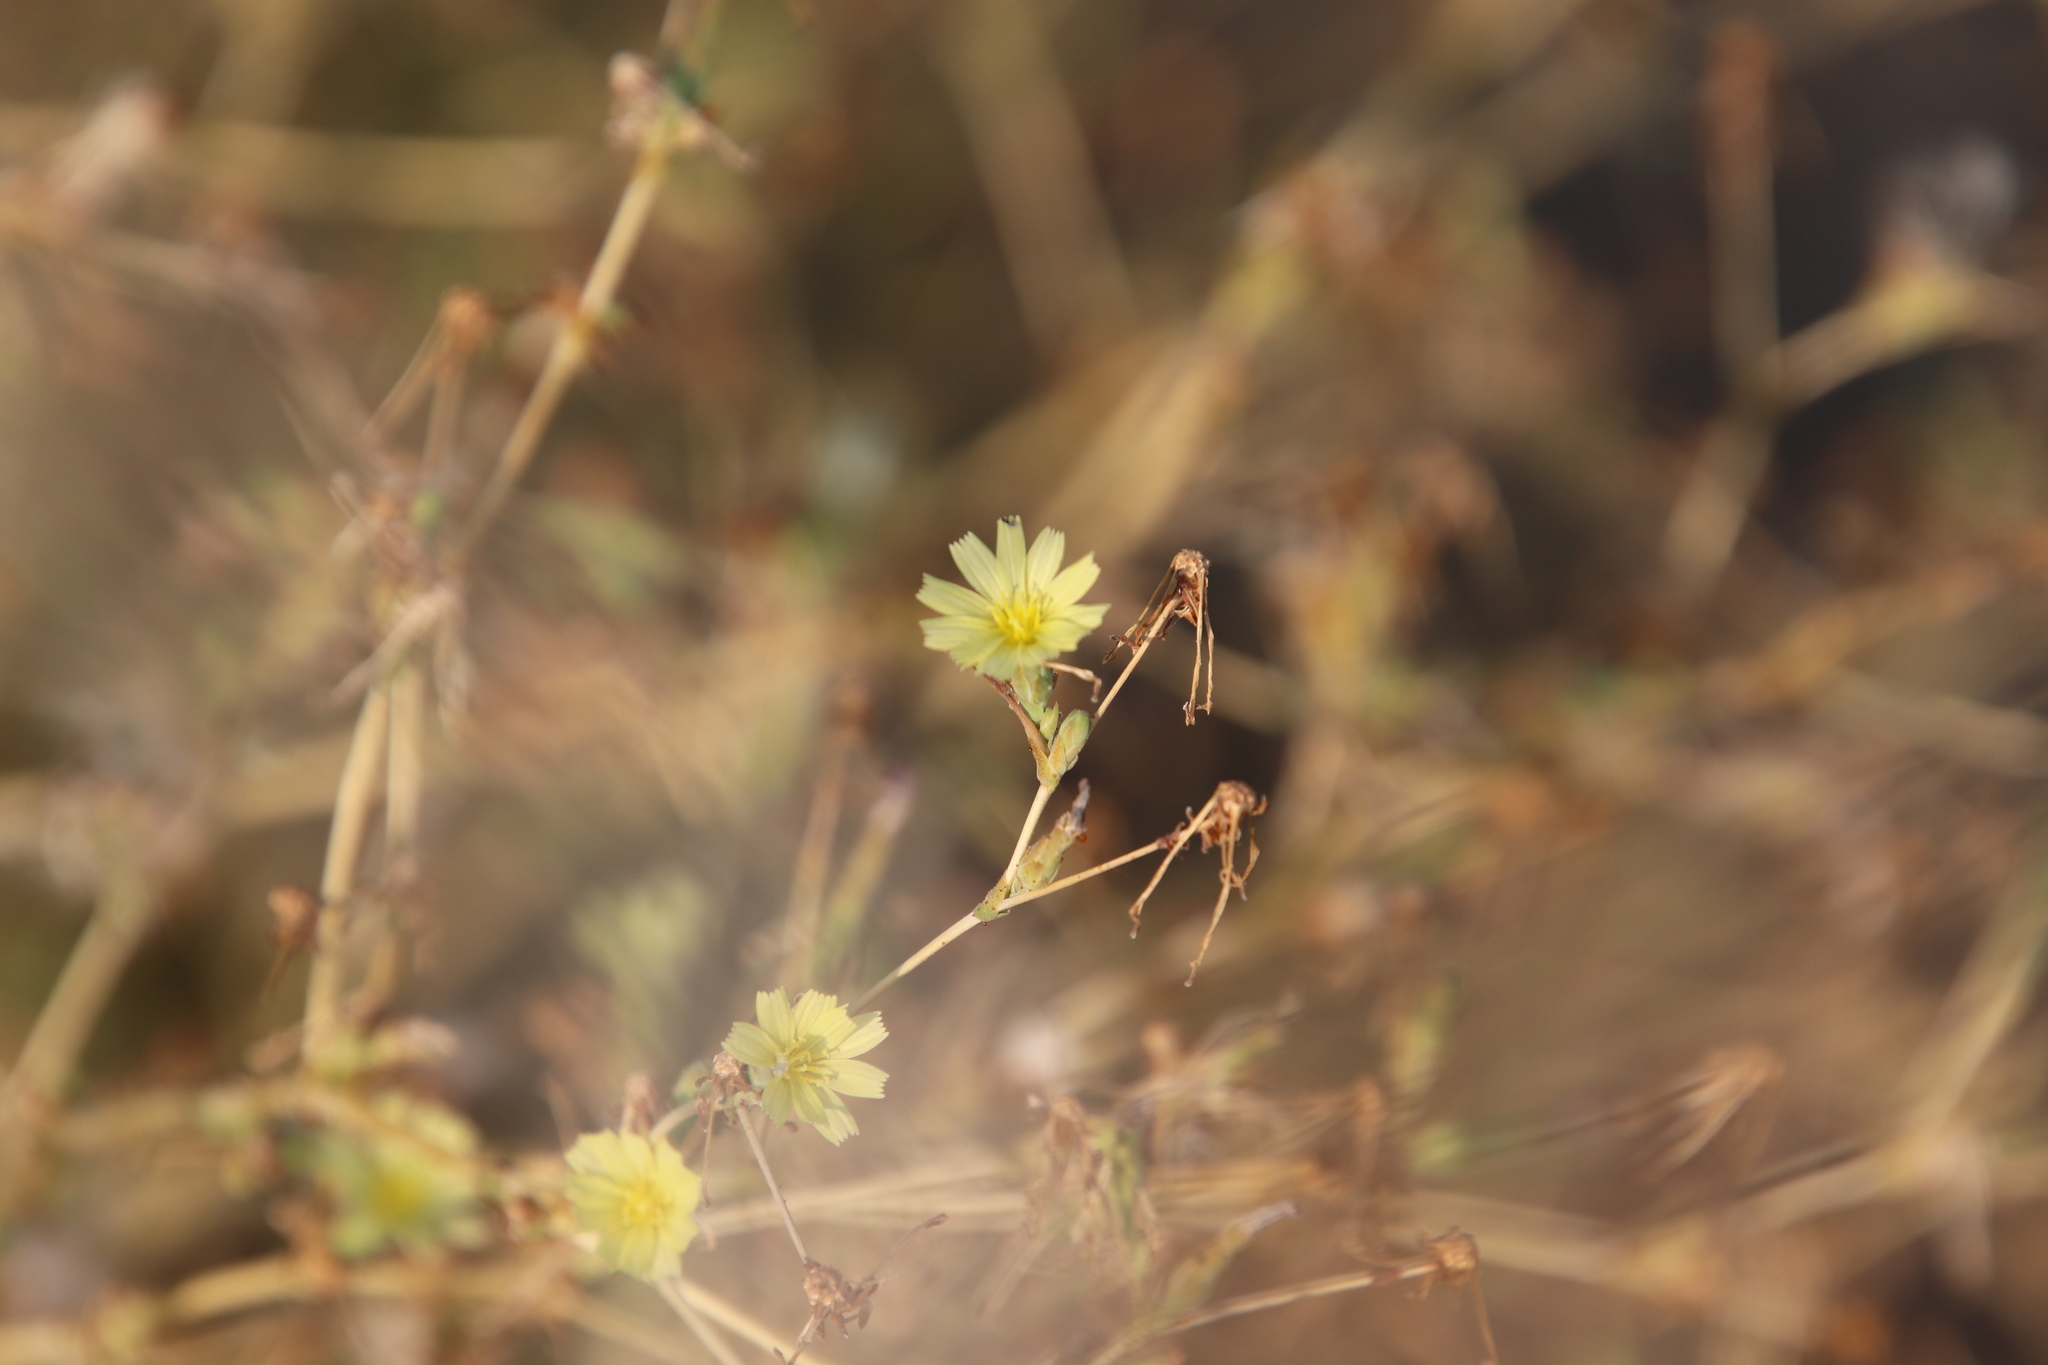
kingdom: Plantae
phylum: Tracheophyta
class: Magnoliopsida
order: Asterales
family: Asteraceae
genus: Lactuca
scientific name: Lactuca serriola
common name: Prickly lettuce
